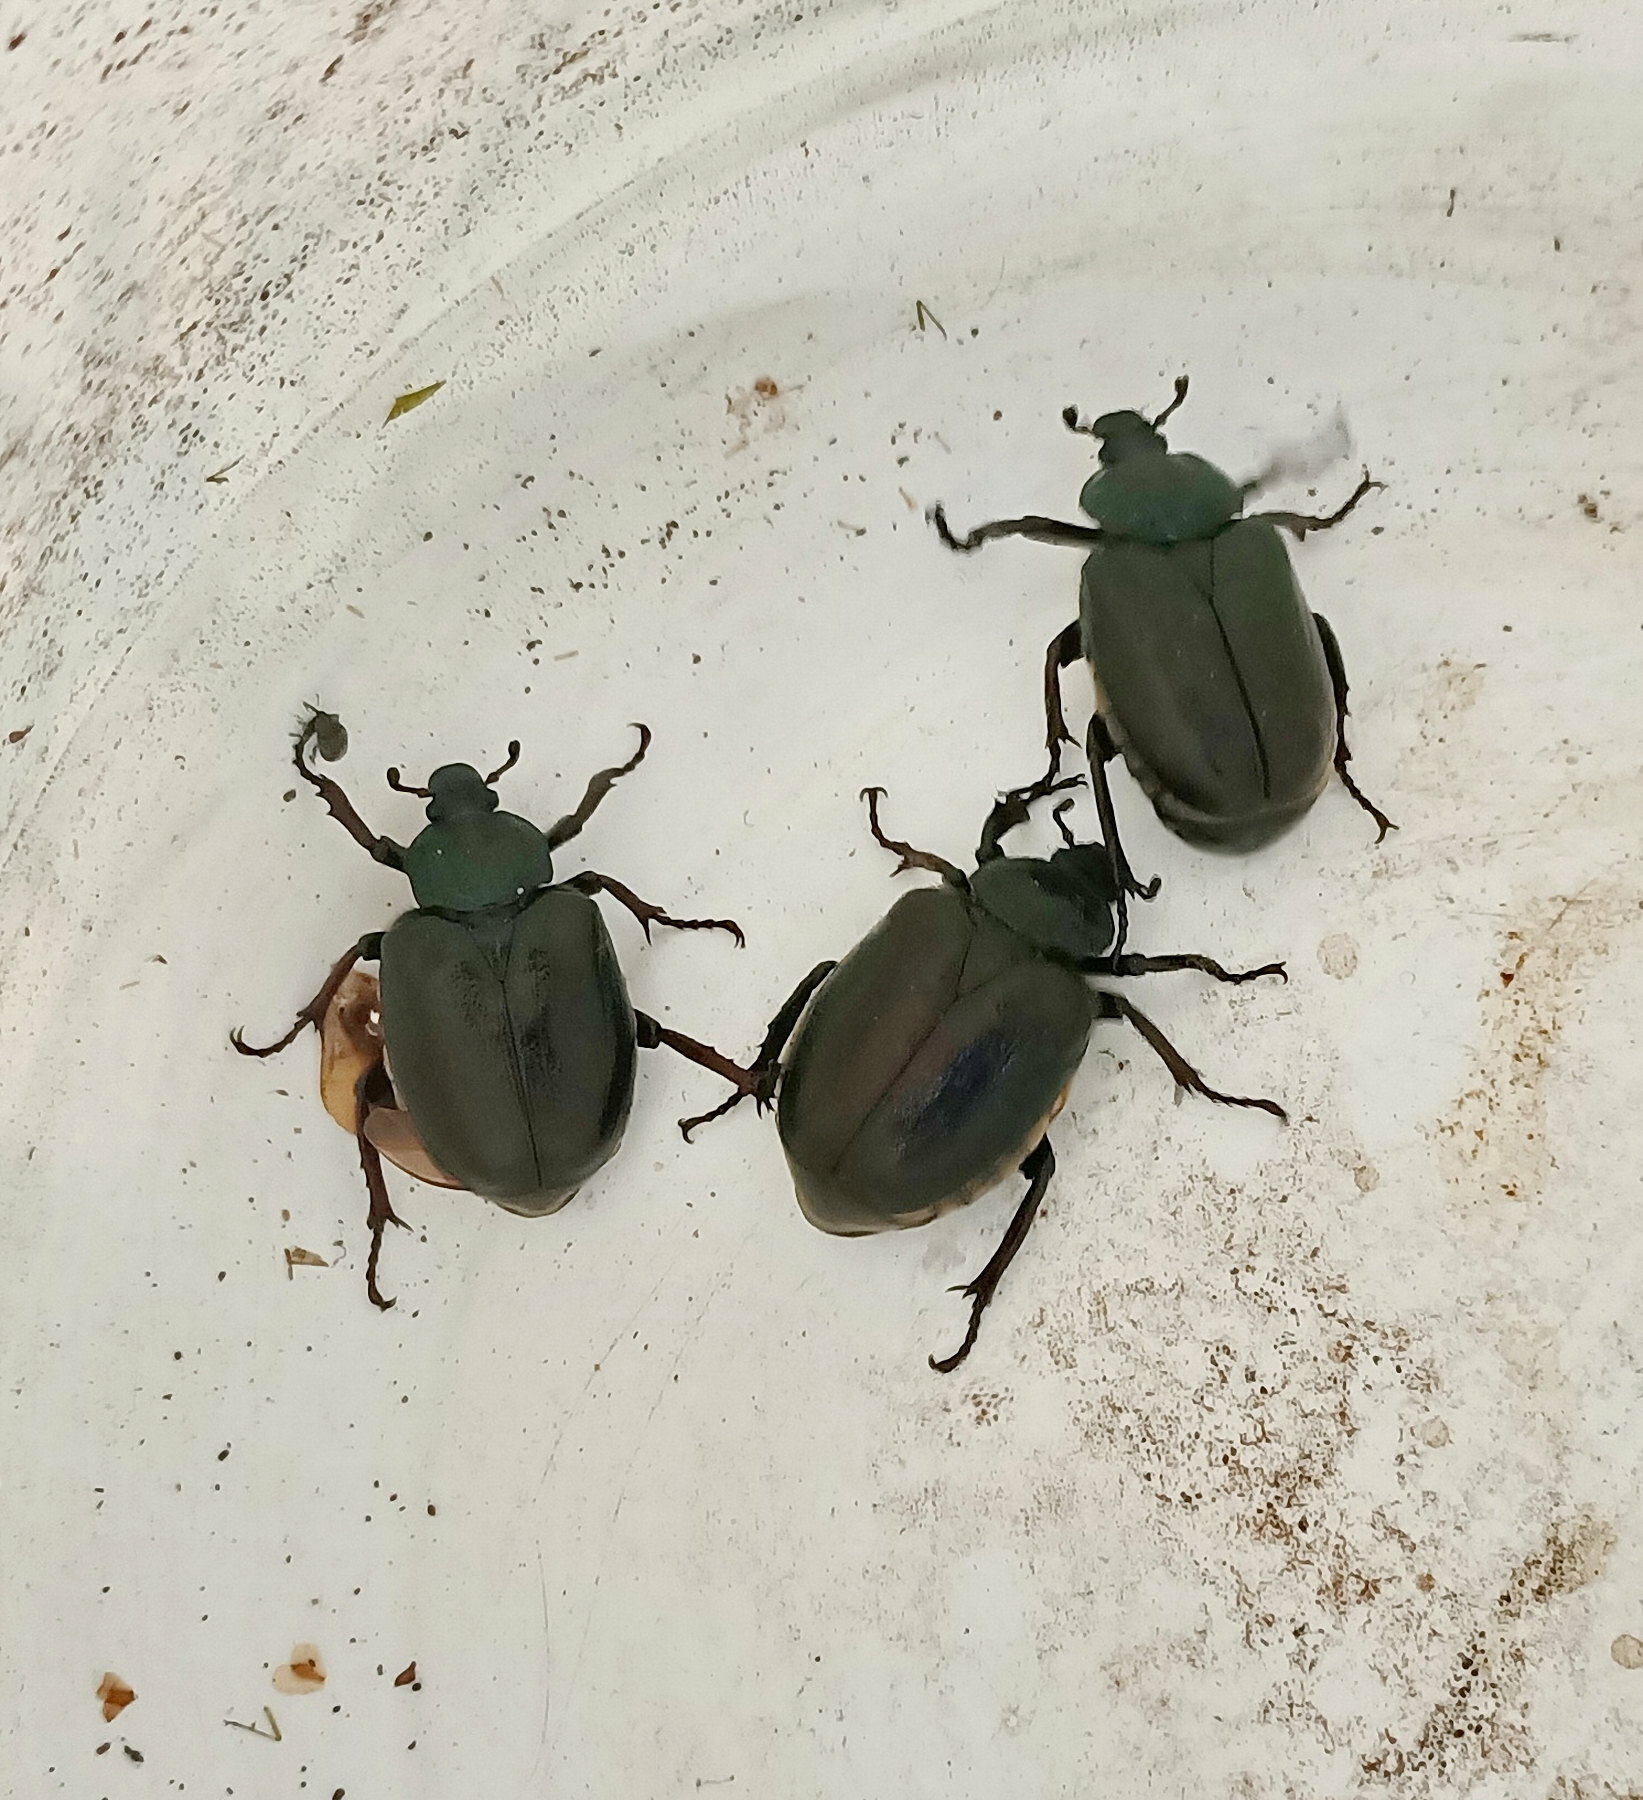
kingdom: Animalia
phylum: Arthropoda
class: Insecta
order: Coleoptera
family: Scarabaeidae
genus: Osmoderma
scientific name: Osmoderma barnabita
